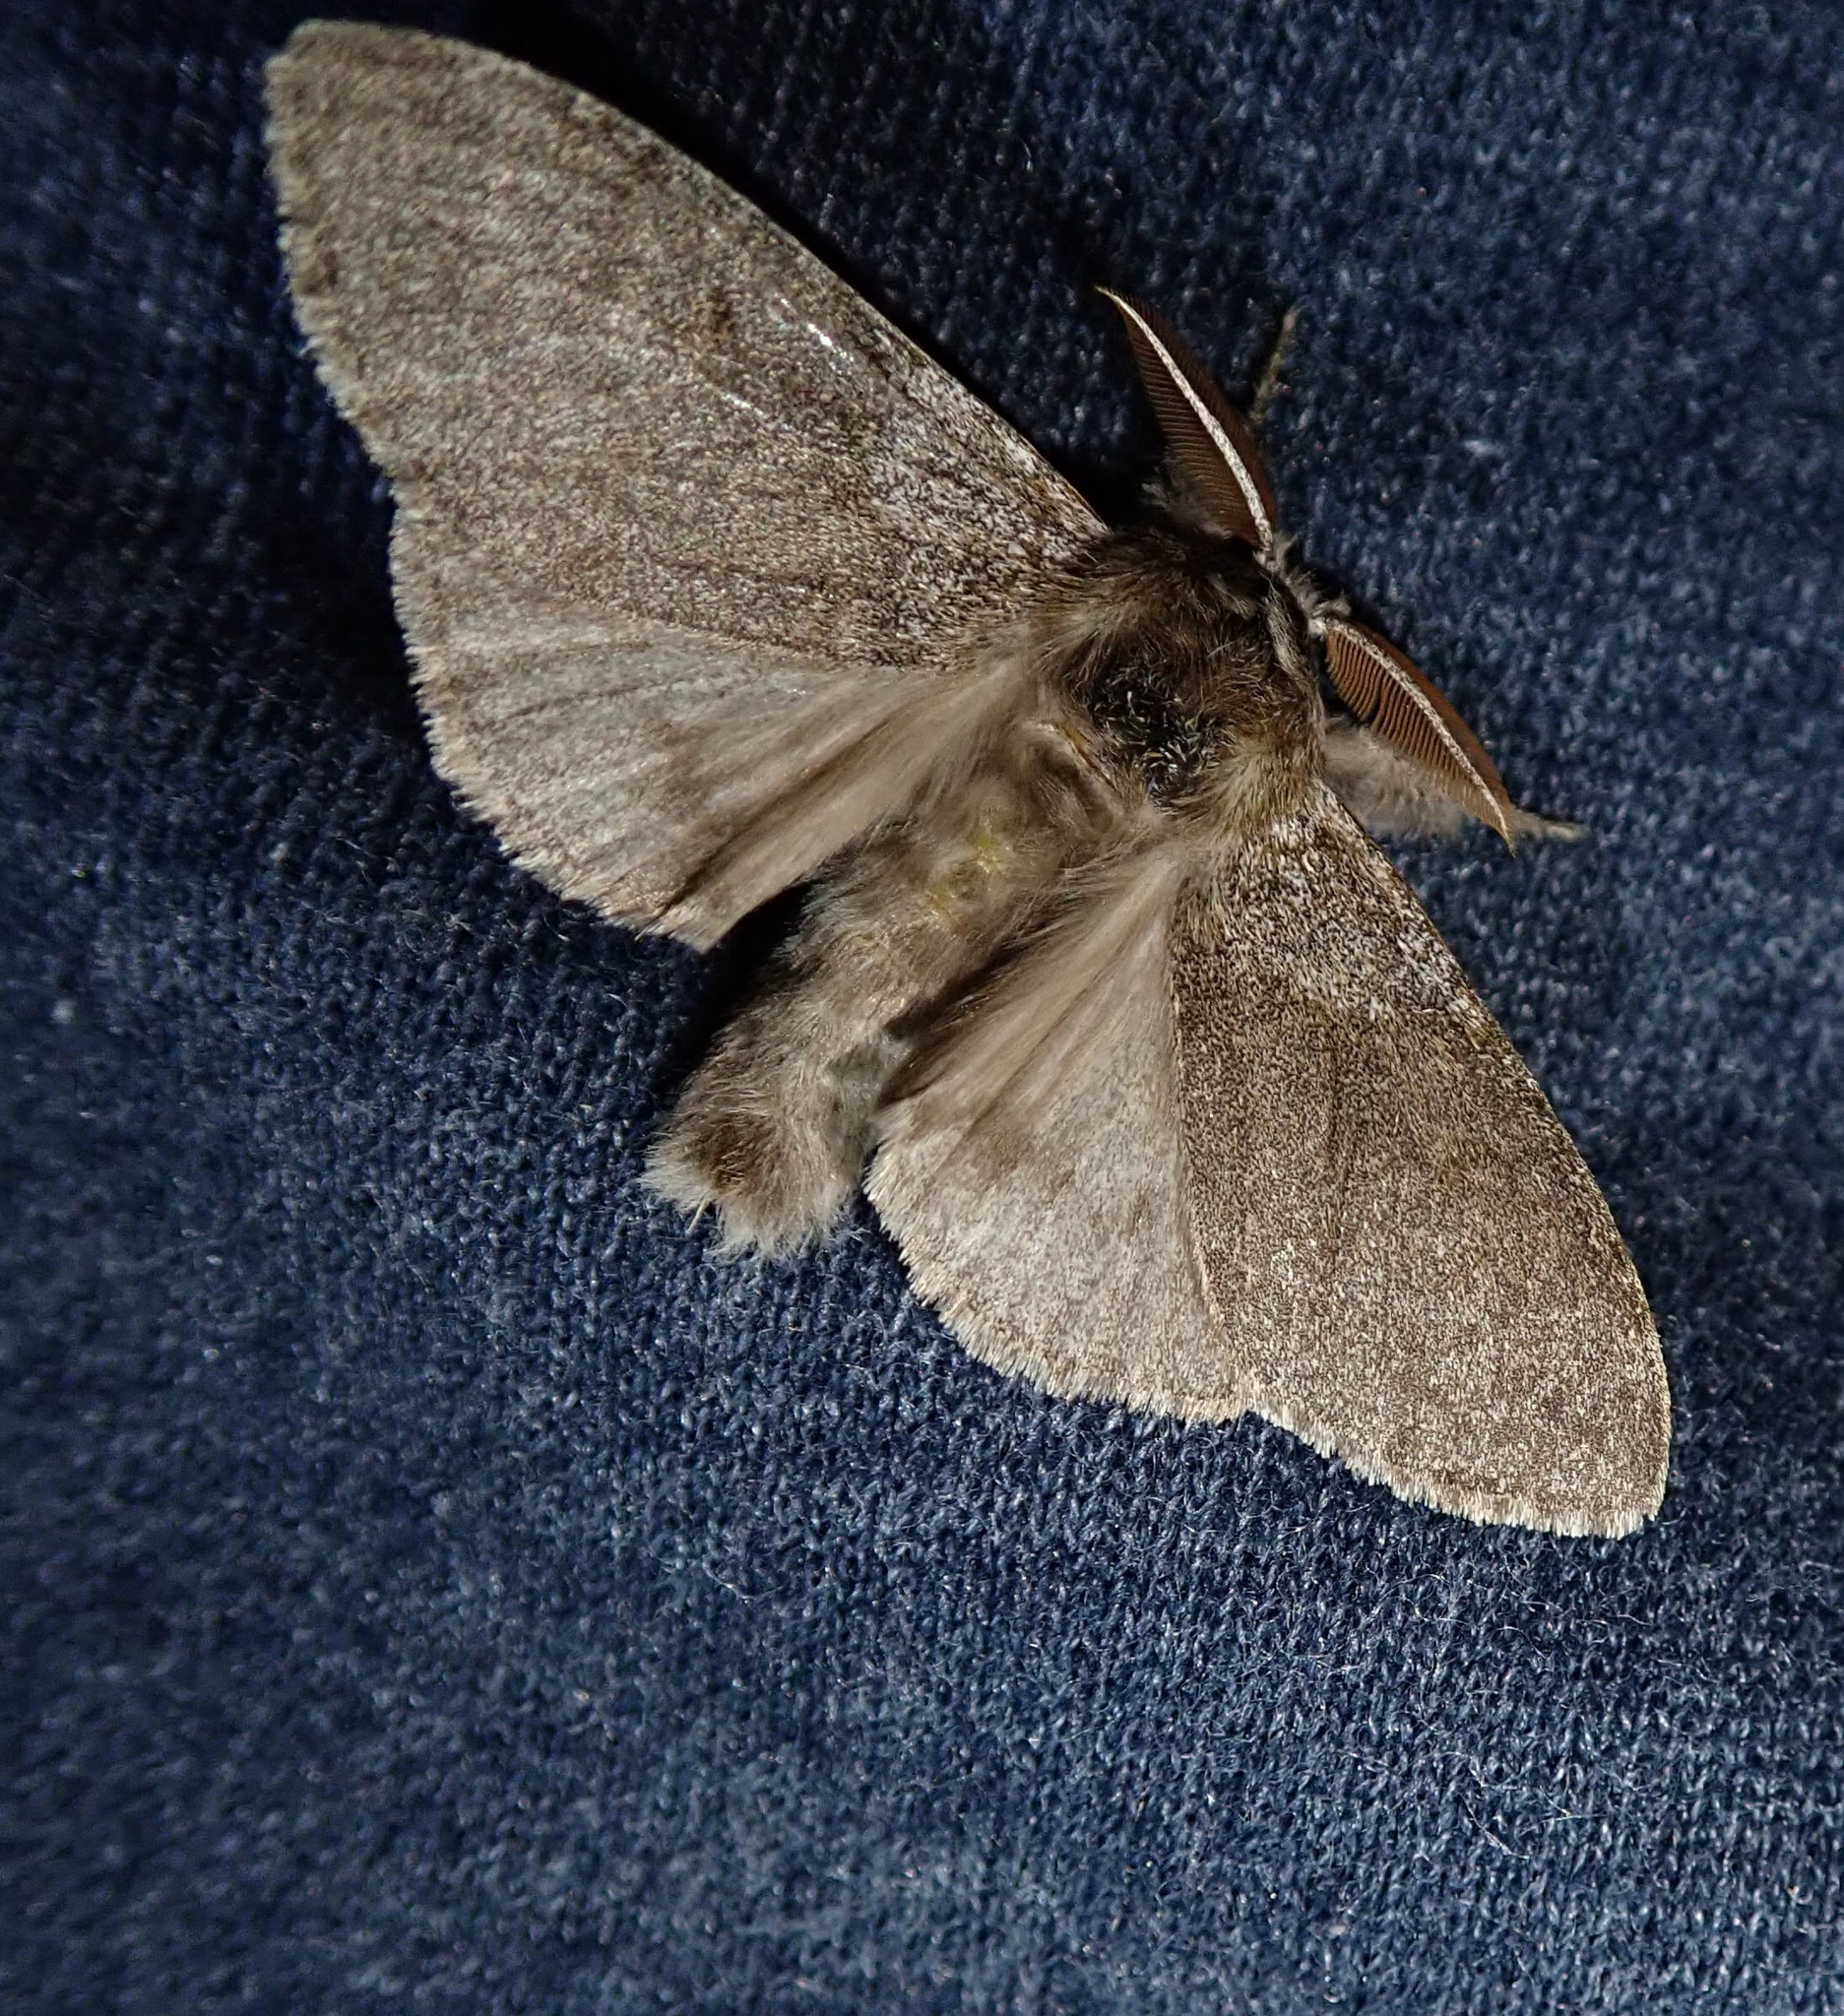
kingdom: Animalia
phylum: Arthropoda
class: Insecta
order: Lepidoptera
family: Erebidae
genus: Calliteara
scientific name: Calliteara pudibunda
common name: Pale tussock
